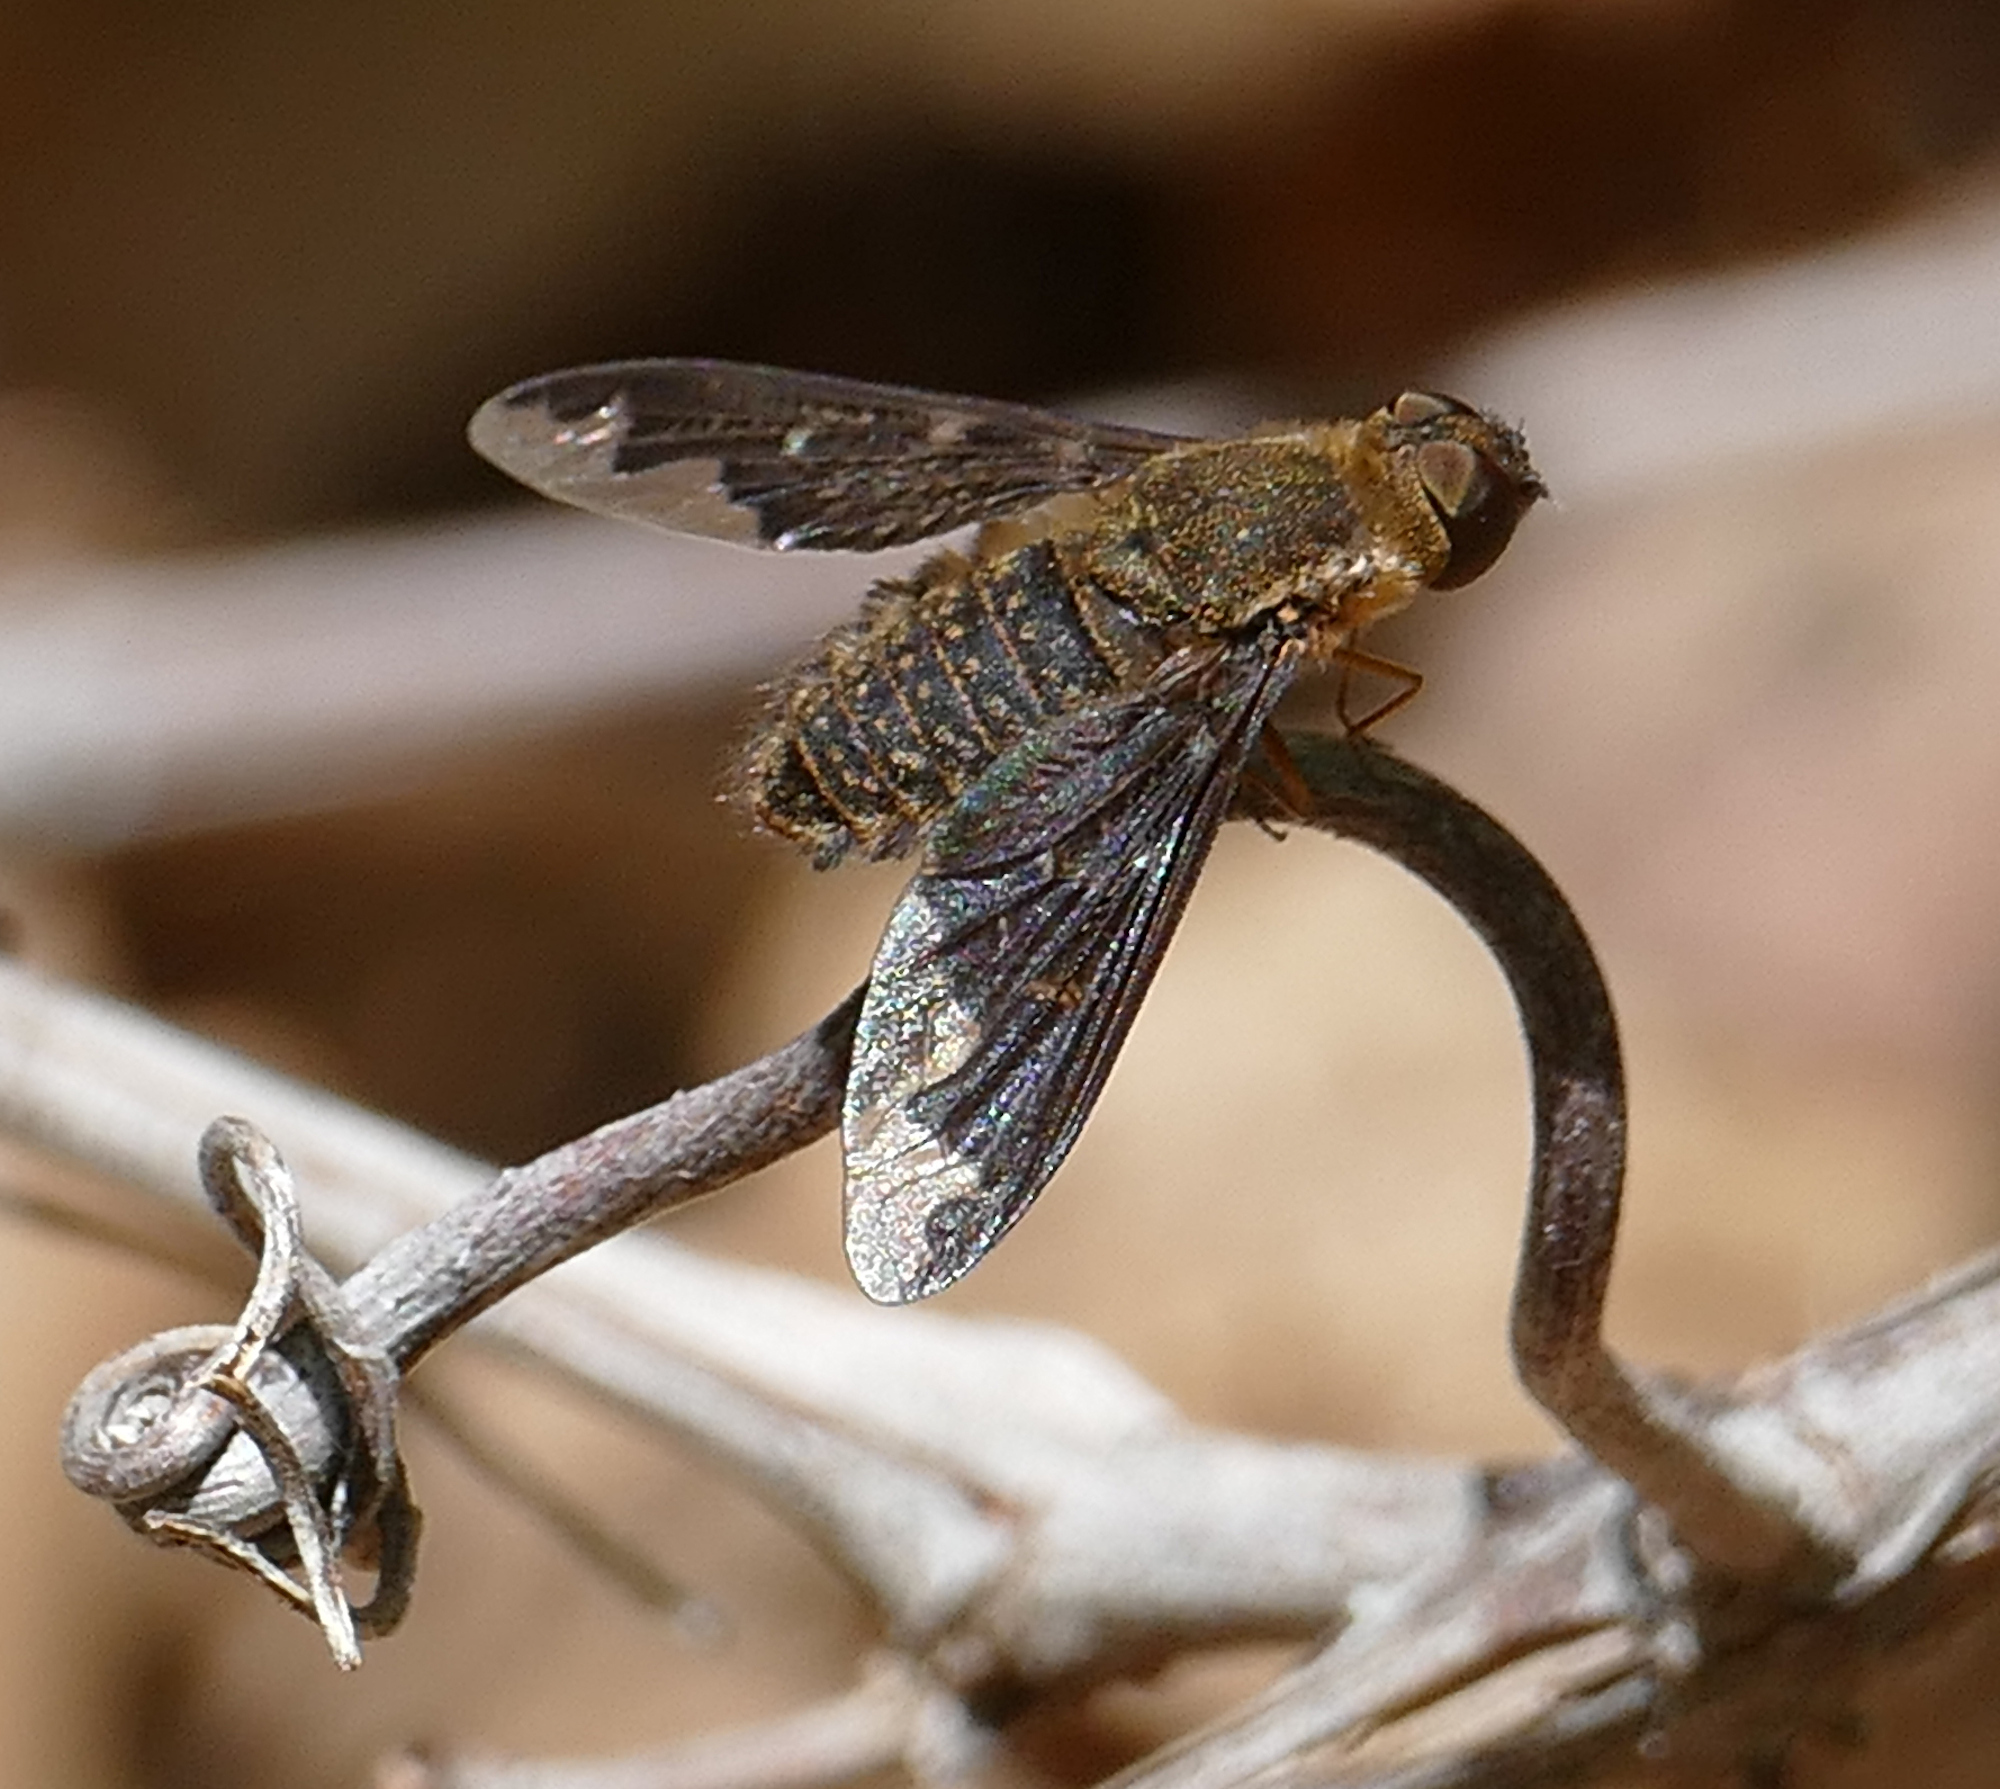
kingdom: Animalia
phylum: Arthropoda
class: Insecta
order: Diptera
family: Bombyliidae
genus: Hemipenthes
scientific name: Hemipenthes jaennickeana
